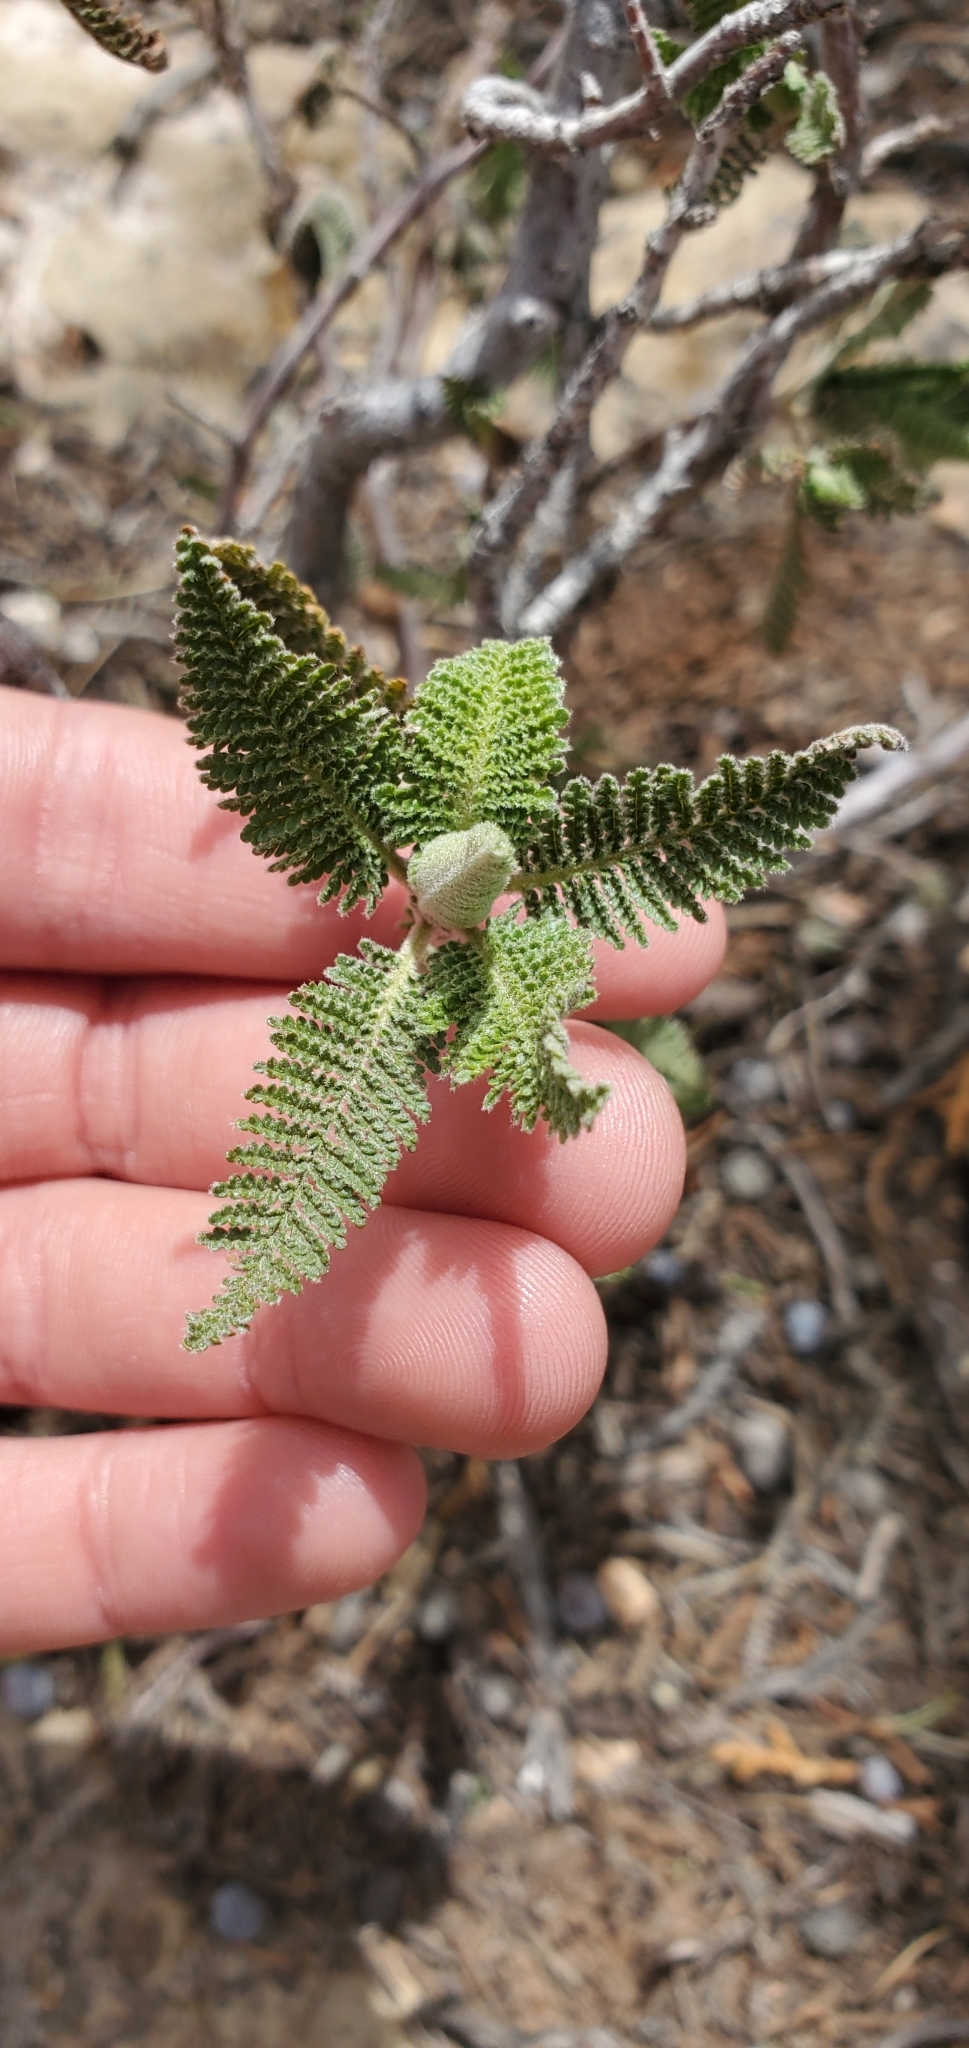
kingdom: Plantae
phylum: Tracheophyta
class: Magnoliopsida
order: Rosales
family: Rosaceae
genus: Chamaebatiaria
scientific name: Chamaebatiaria millefolium
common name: Fernbush
